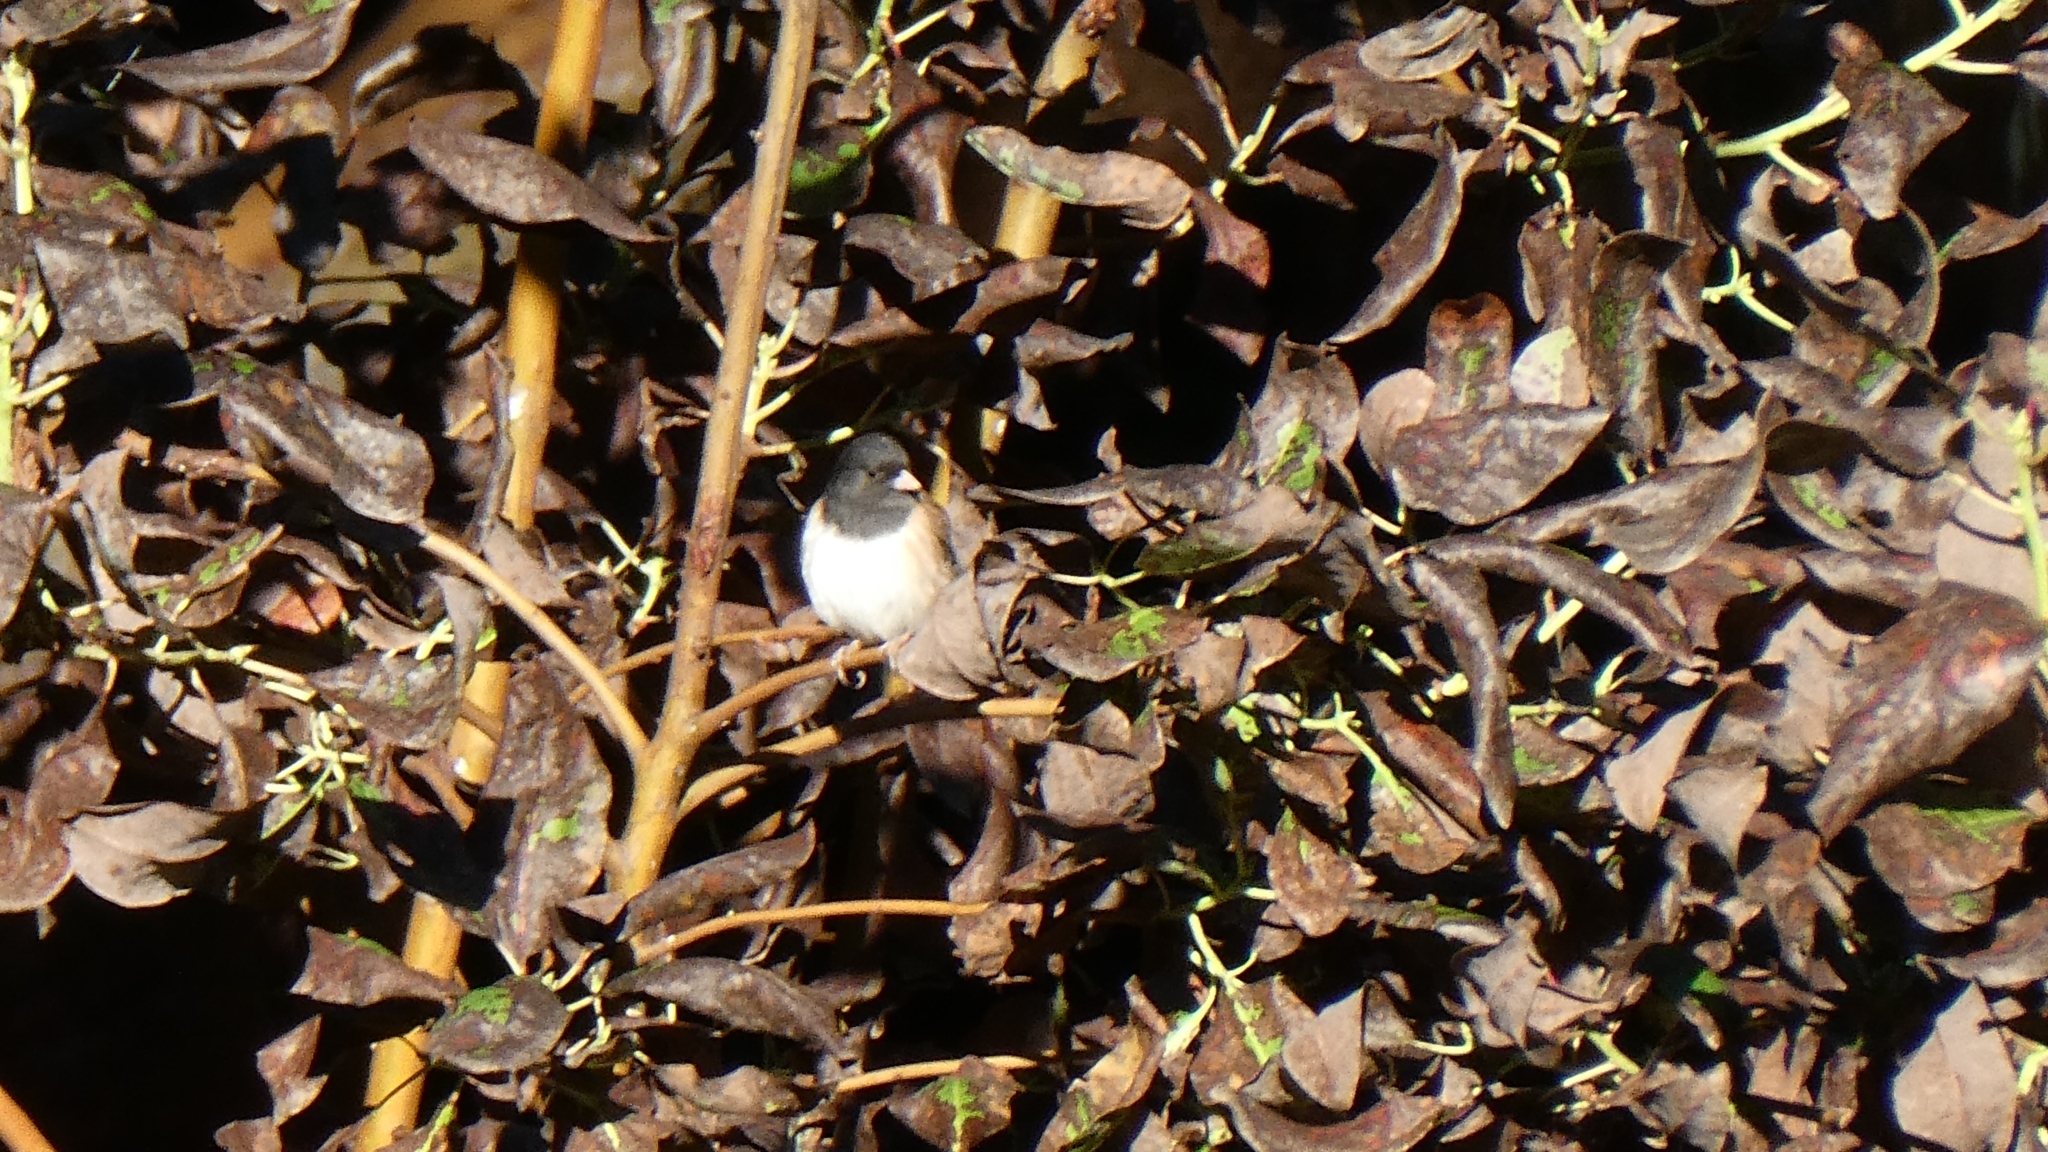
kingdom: Animalia
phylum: Chordata
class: Aves
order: Passeriformes
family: Passerellidae
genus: Junco
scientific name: Junco hyemalis
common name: Dark-eyed junco
